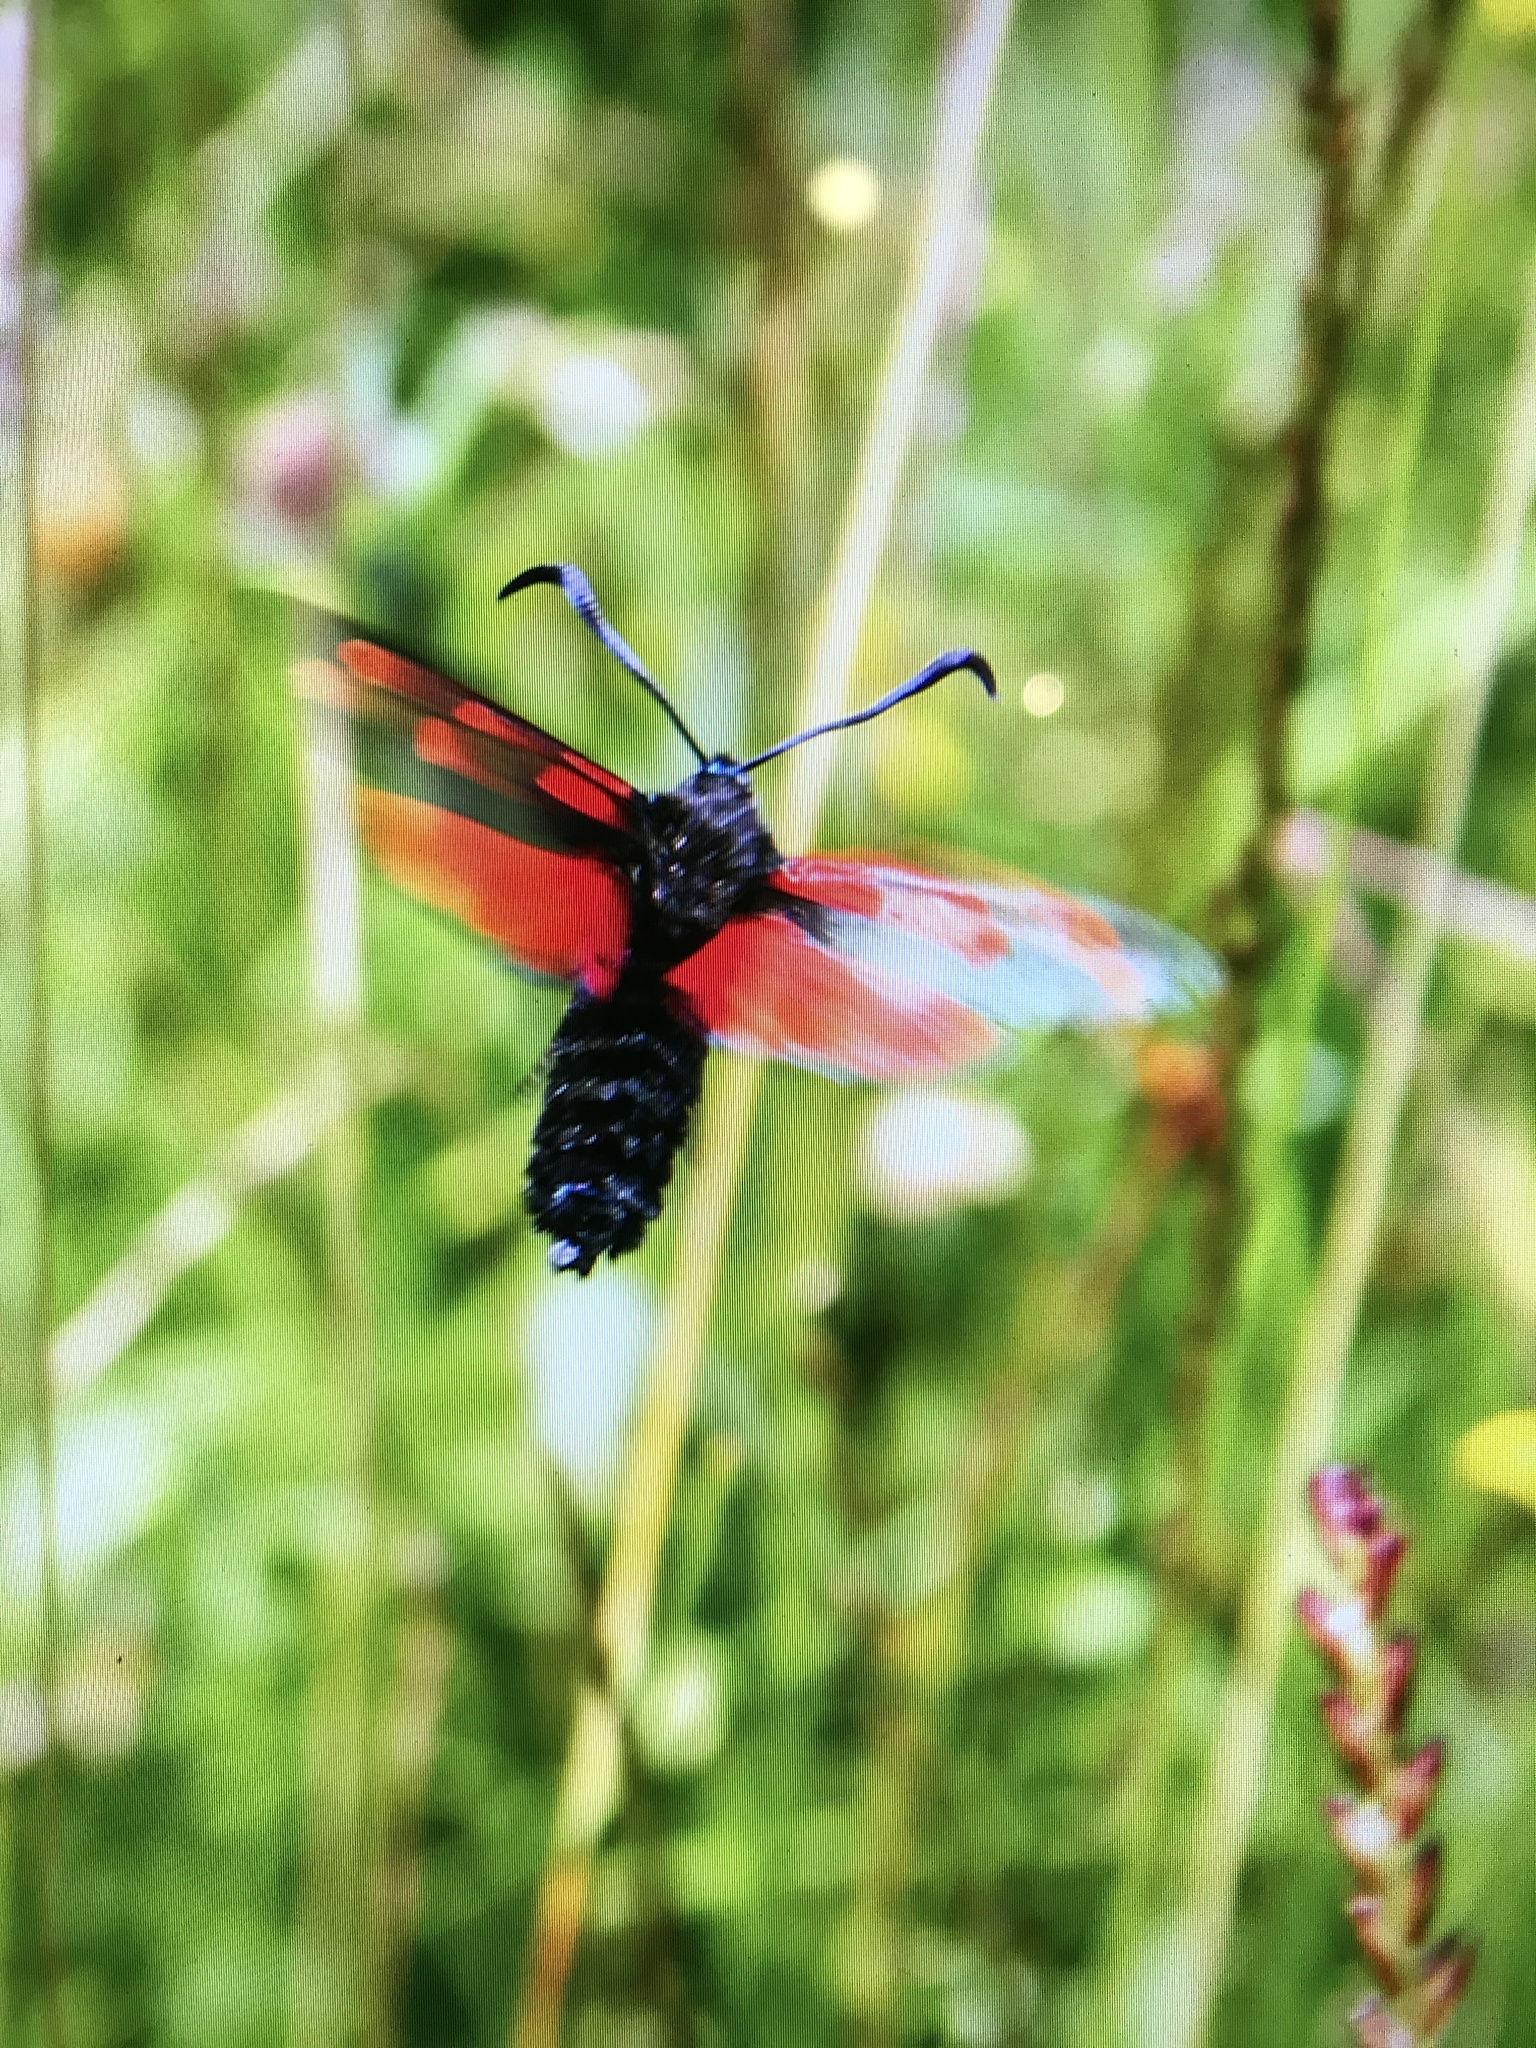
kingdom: Animalia
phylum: Arthropoda
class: Insecta
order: Lepidoptera
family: Zygaenidae
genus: Zygaena
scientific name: Zygaena filipendulae
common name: Six-spot burnet
